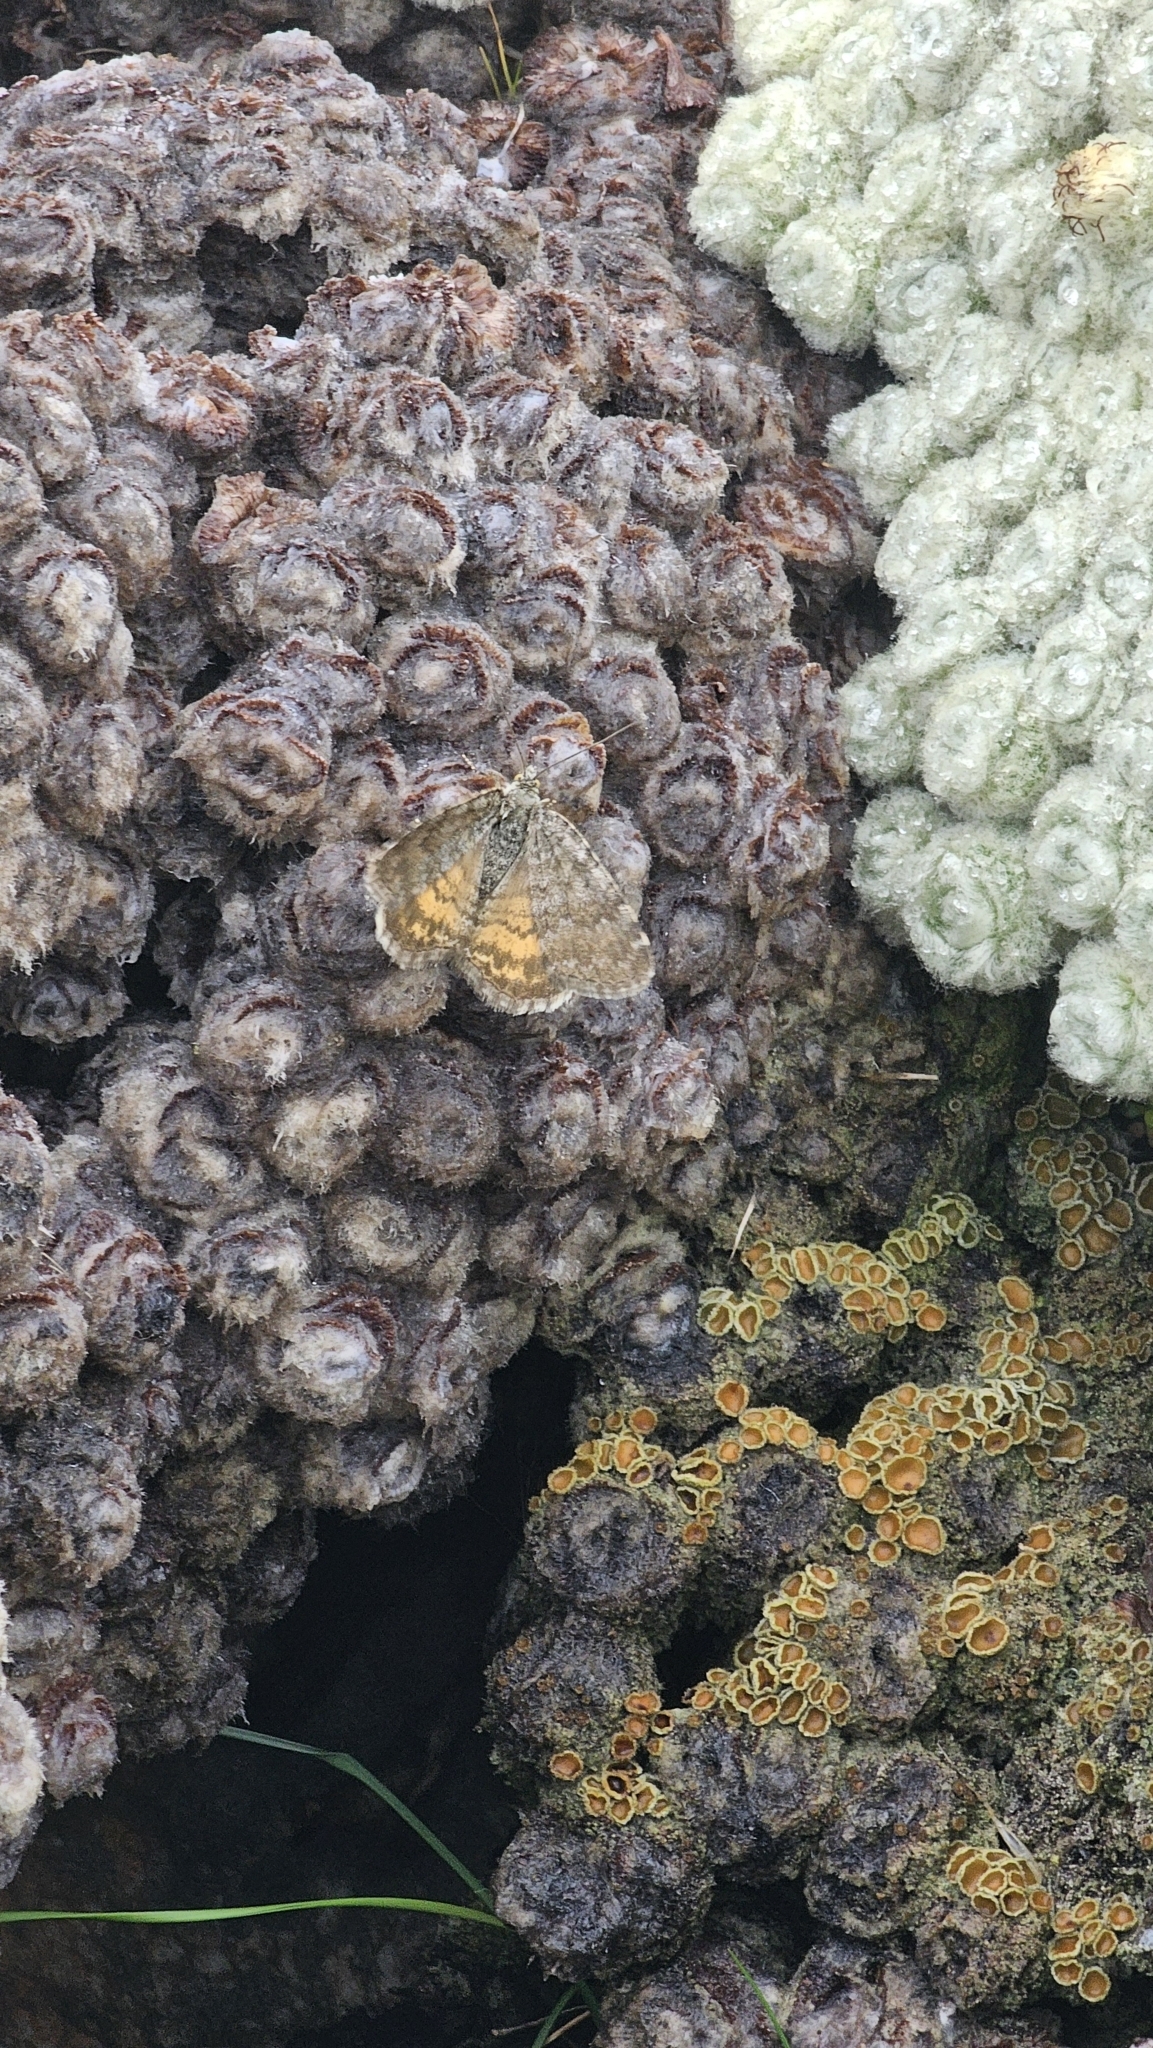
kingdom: Animalia
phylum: Arthropoda
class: Insecta
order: Lepidoptera
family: Geometridae
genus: Dasyuris
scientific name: Dasyuris anceps
